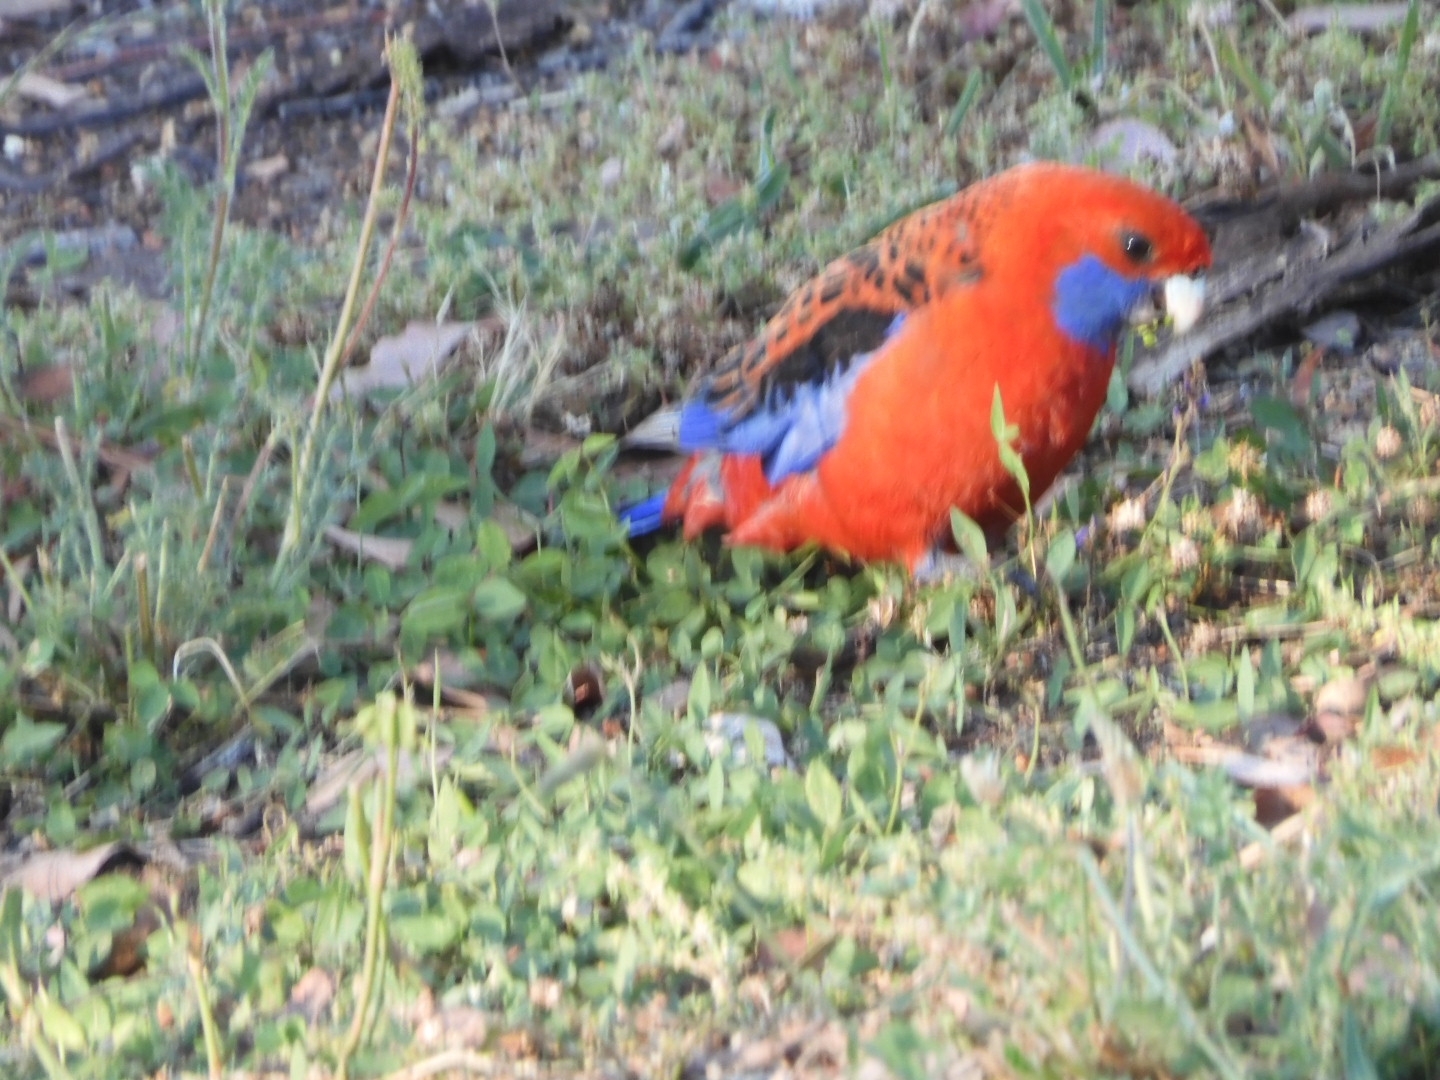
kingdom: Animalia
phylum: Chordata
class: Aves
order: Psittaciformes
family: Psittacidae
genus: Platycercus
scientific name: Platycercus elegans
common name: Crimson rosella
